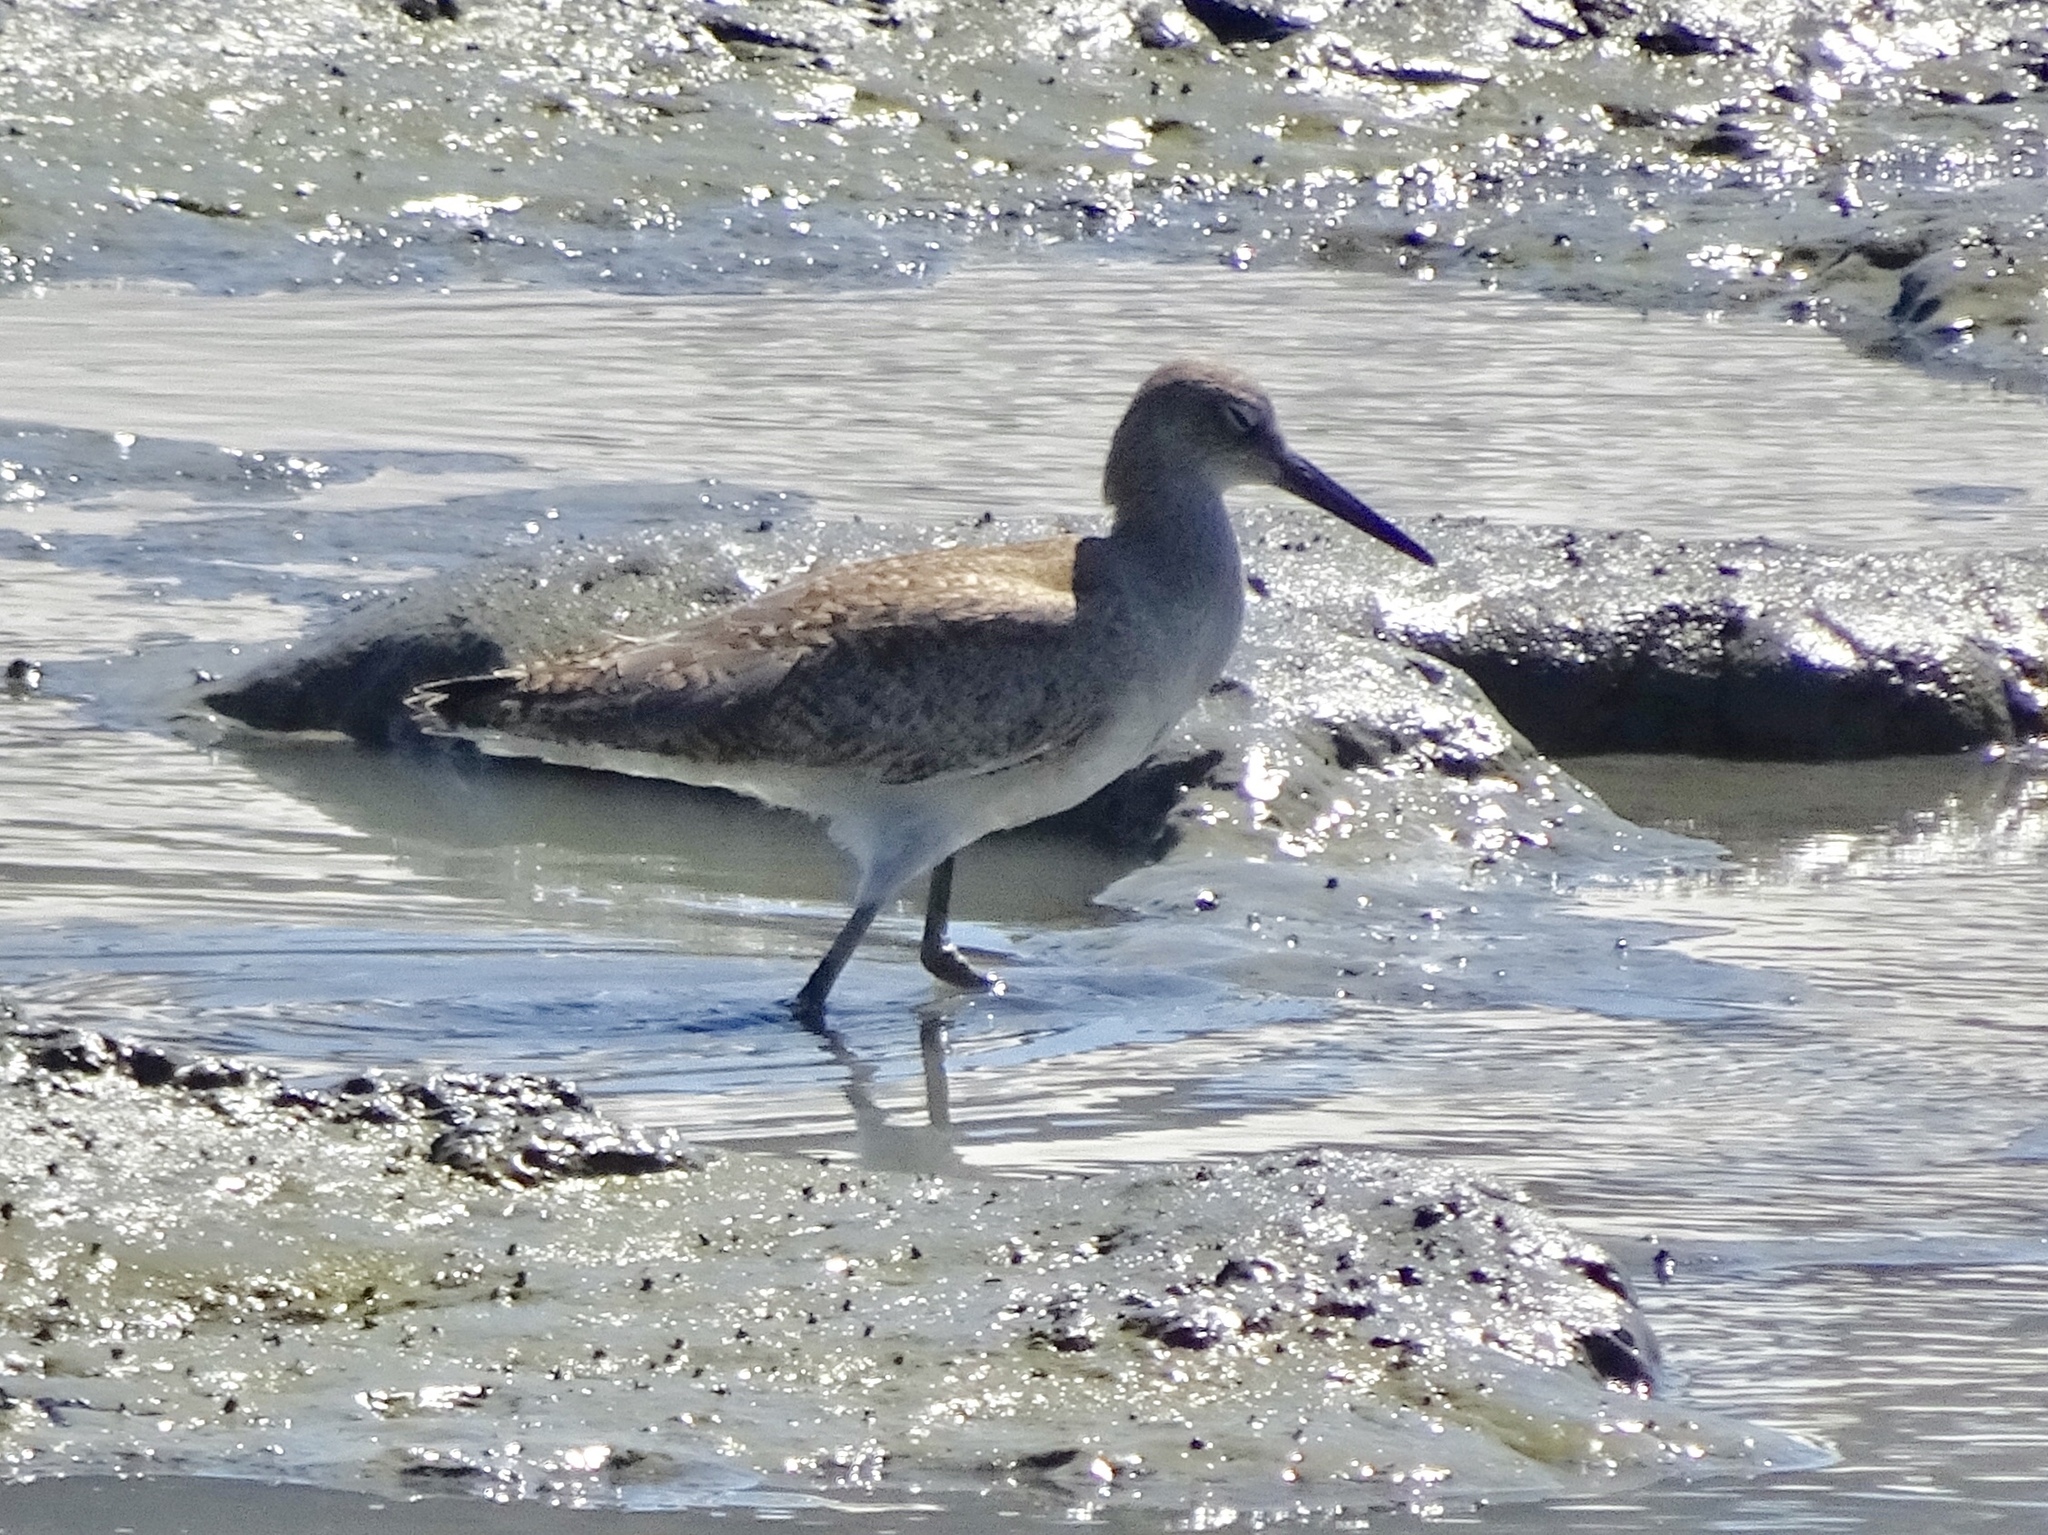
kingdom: Animalia
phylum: Chordata
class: Aves
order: Charadriiformes
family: Scolopacidae
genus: Tringa
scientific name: Tringa semipalmata
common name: Willet
